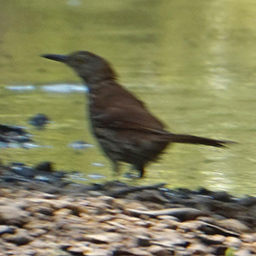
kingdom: Animalia
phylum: Chordata
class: Aves
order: Passeriformes
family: Mimidae
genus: Toxostoma
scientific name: Toxostoma rufum
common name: Brown thrasher
